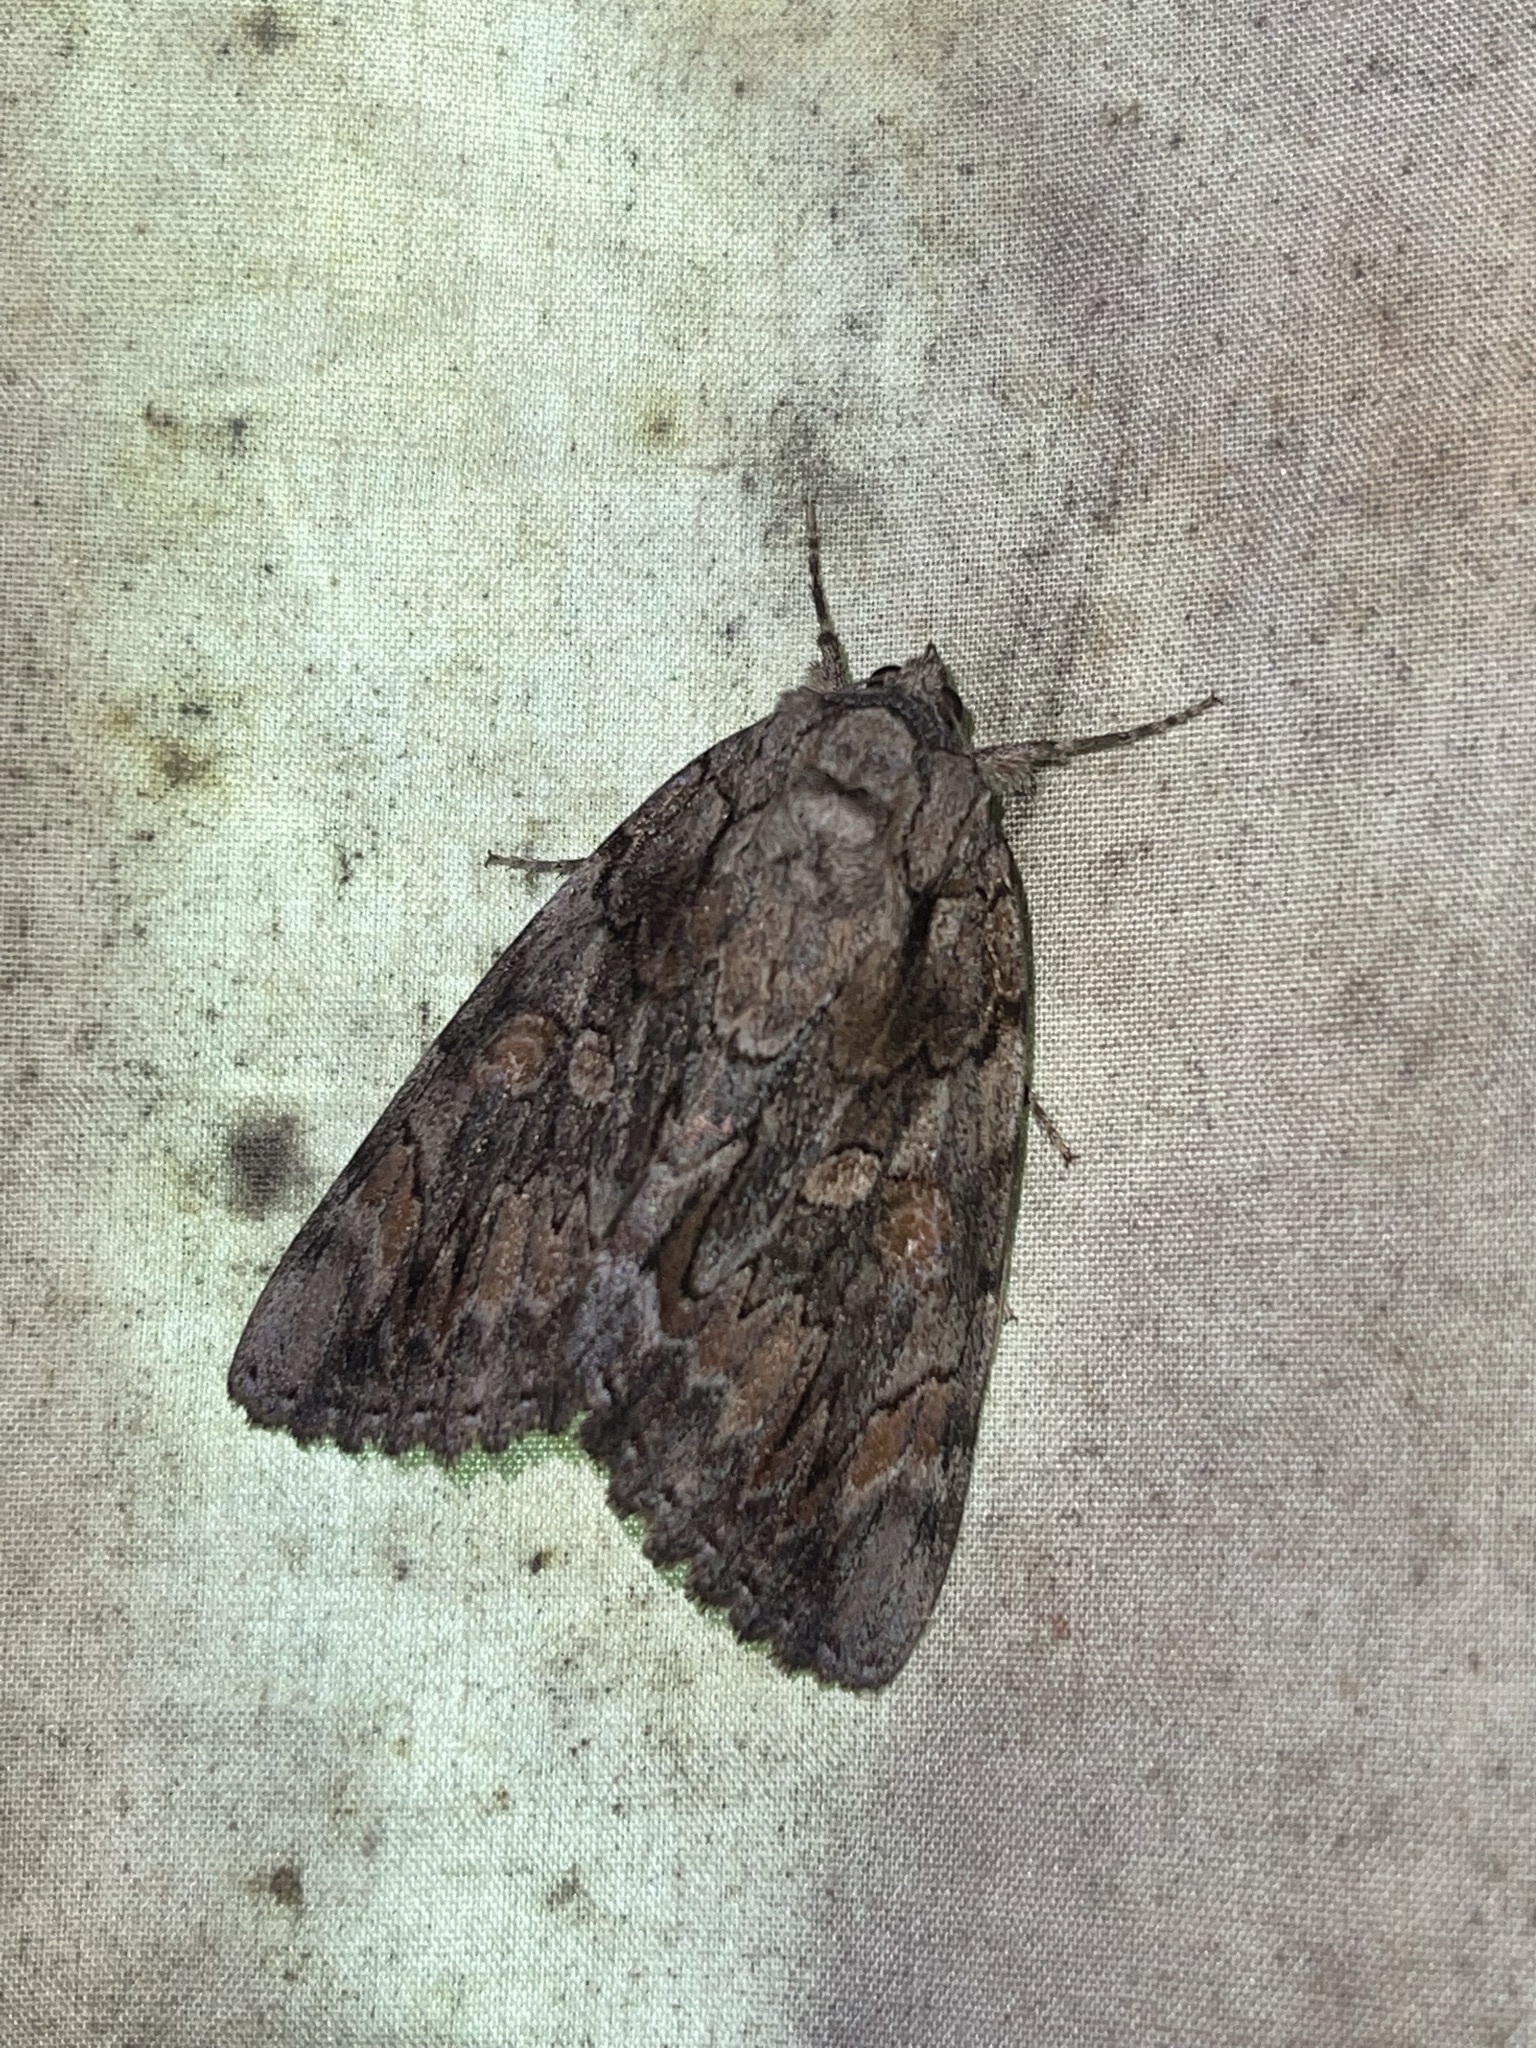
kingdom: Animalia
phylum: Arthropoda
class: Insecta
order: Lepidoptera
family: Erebidae
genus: Catocala
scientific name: Catocala neogama
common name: Bride underwing
